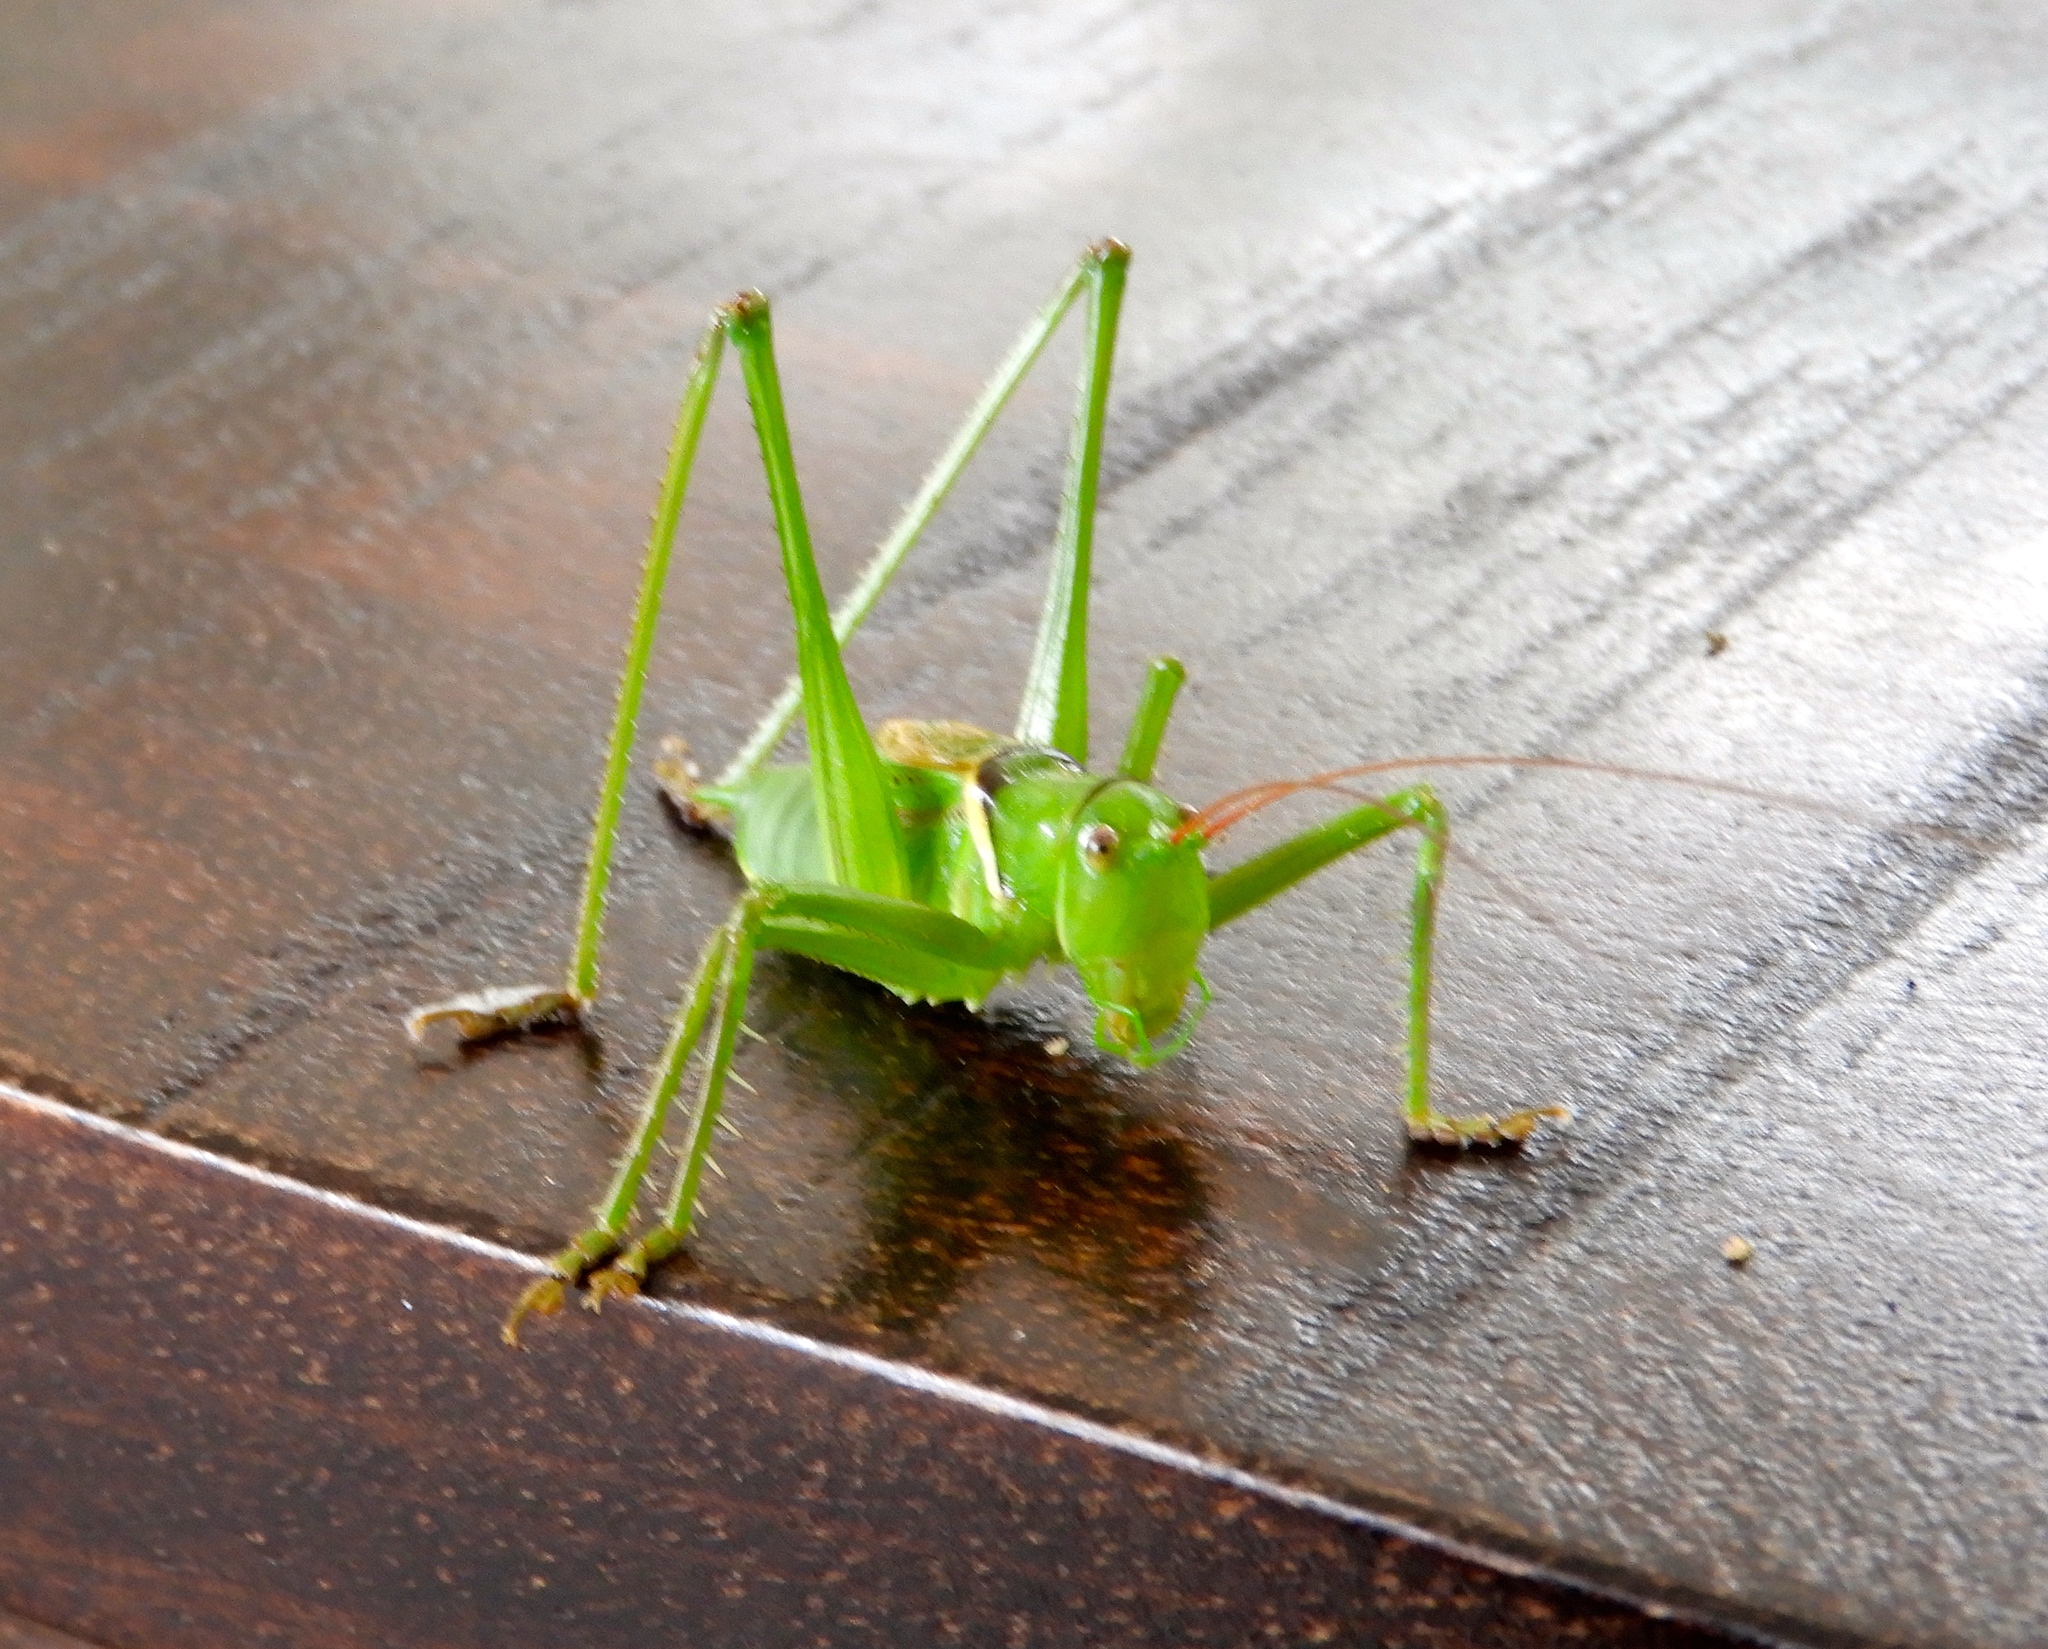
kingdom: Animalia
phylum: Arthropoda
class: Insecta
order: Orthoptera
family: Tettigoniidae
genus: Neobarrettia
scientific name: Neobarrettia sinaloae
